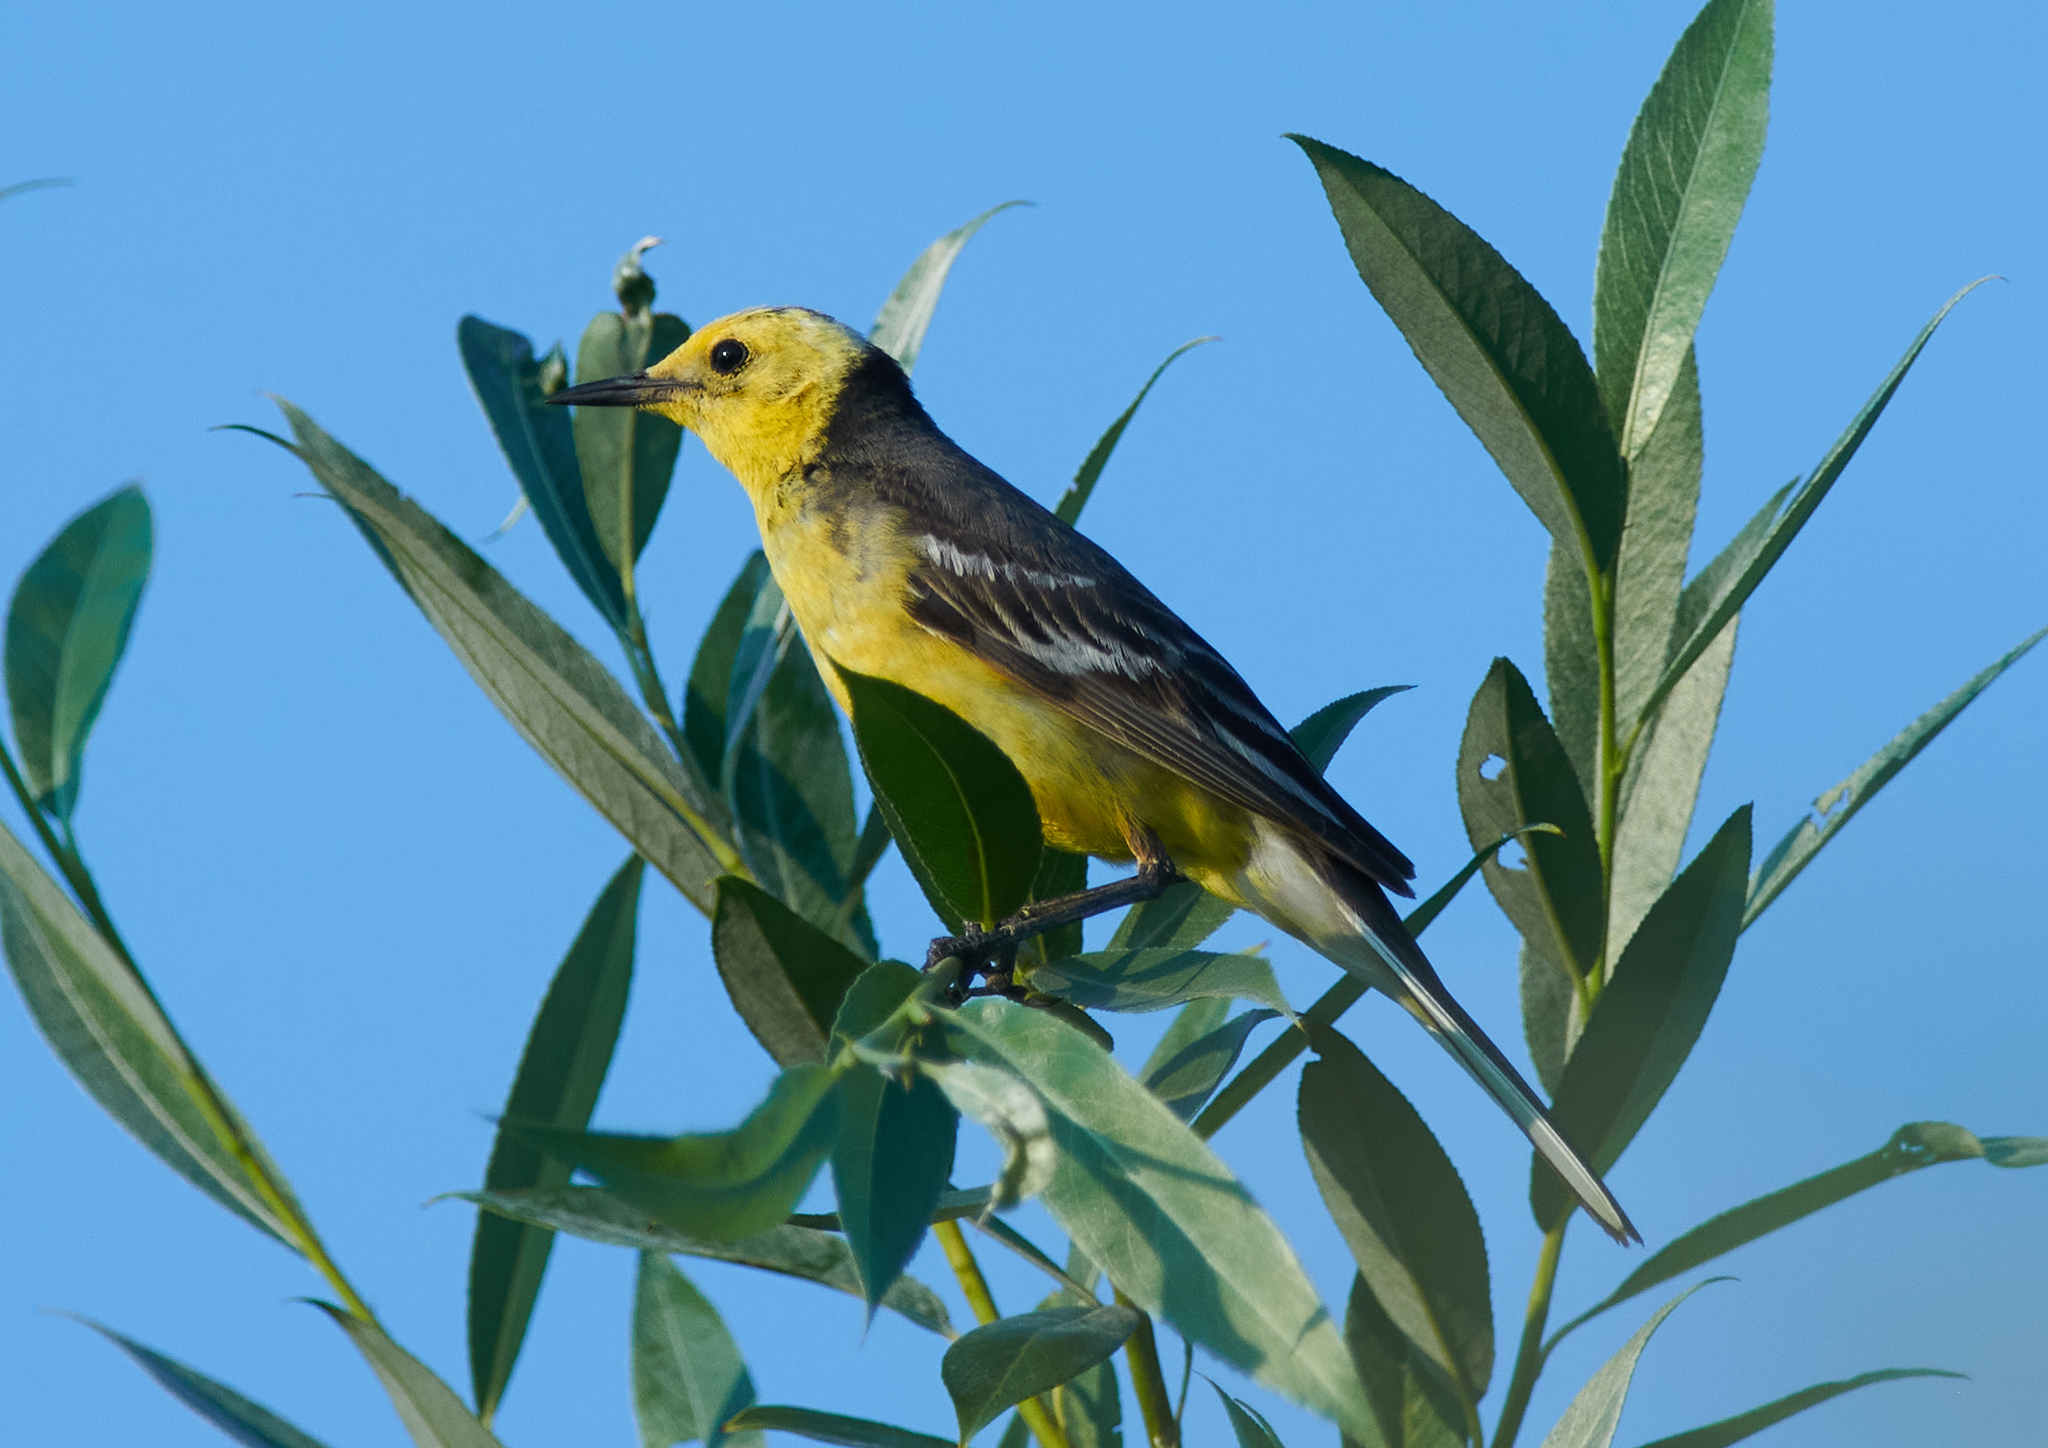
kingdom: Animalia
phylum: Chordata
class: Aves
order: Passeriformes
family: Motacillidae
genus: Motacilla
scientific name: Motacilla citreola
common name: Citrine wagtail
